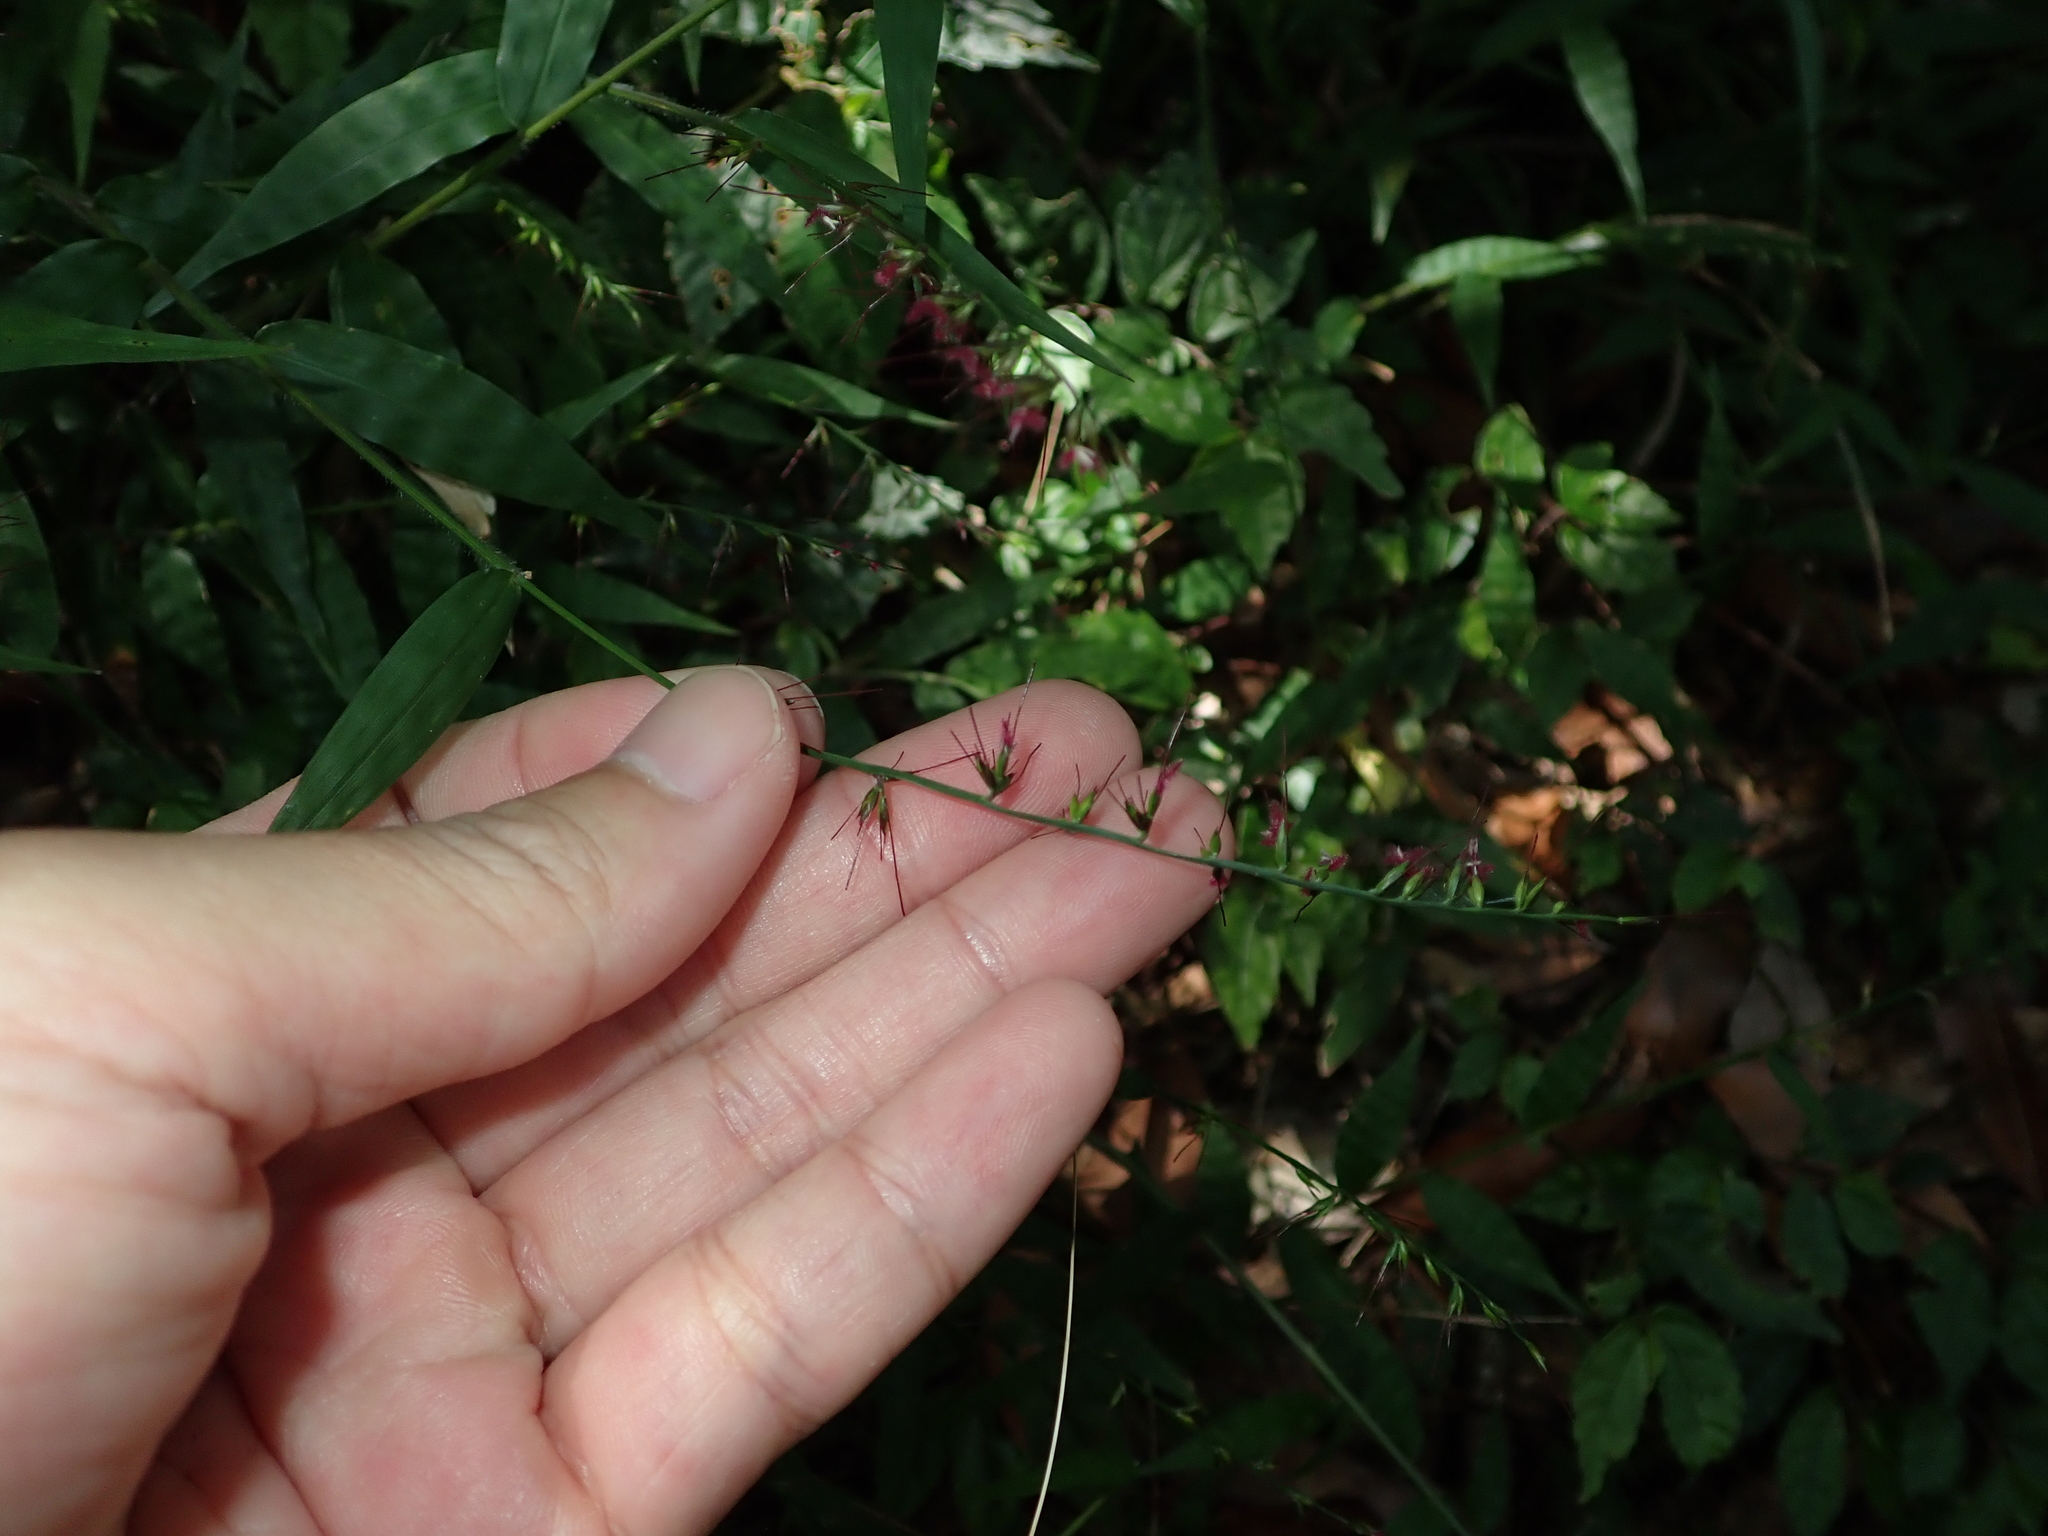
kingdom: Plantae
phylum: Tracheophyta
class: Liliopsida
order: Poales
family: Poaceae
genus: Oplismenus
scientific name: Oplismenus hirtellus
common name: Basketgrass
